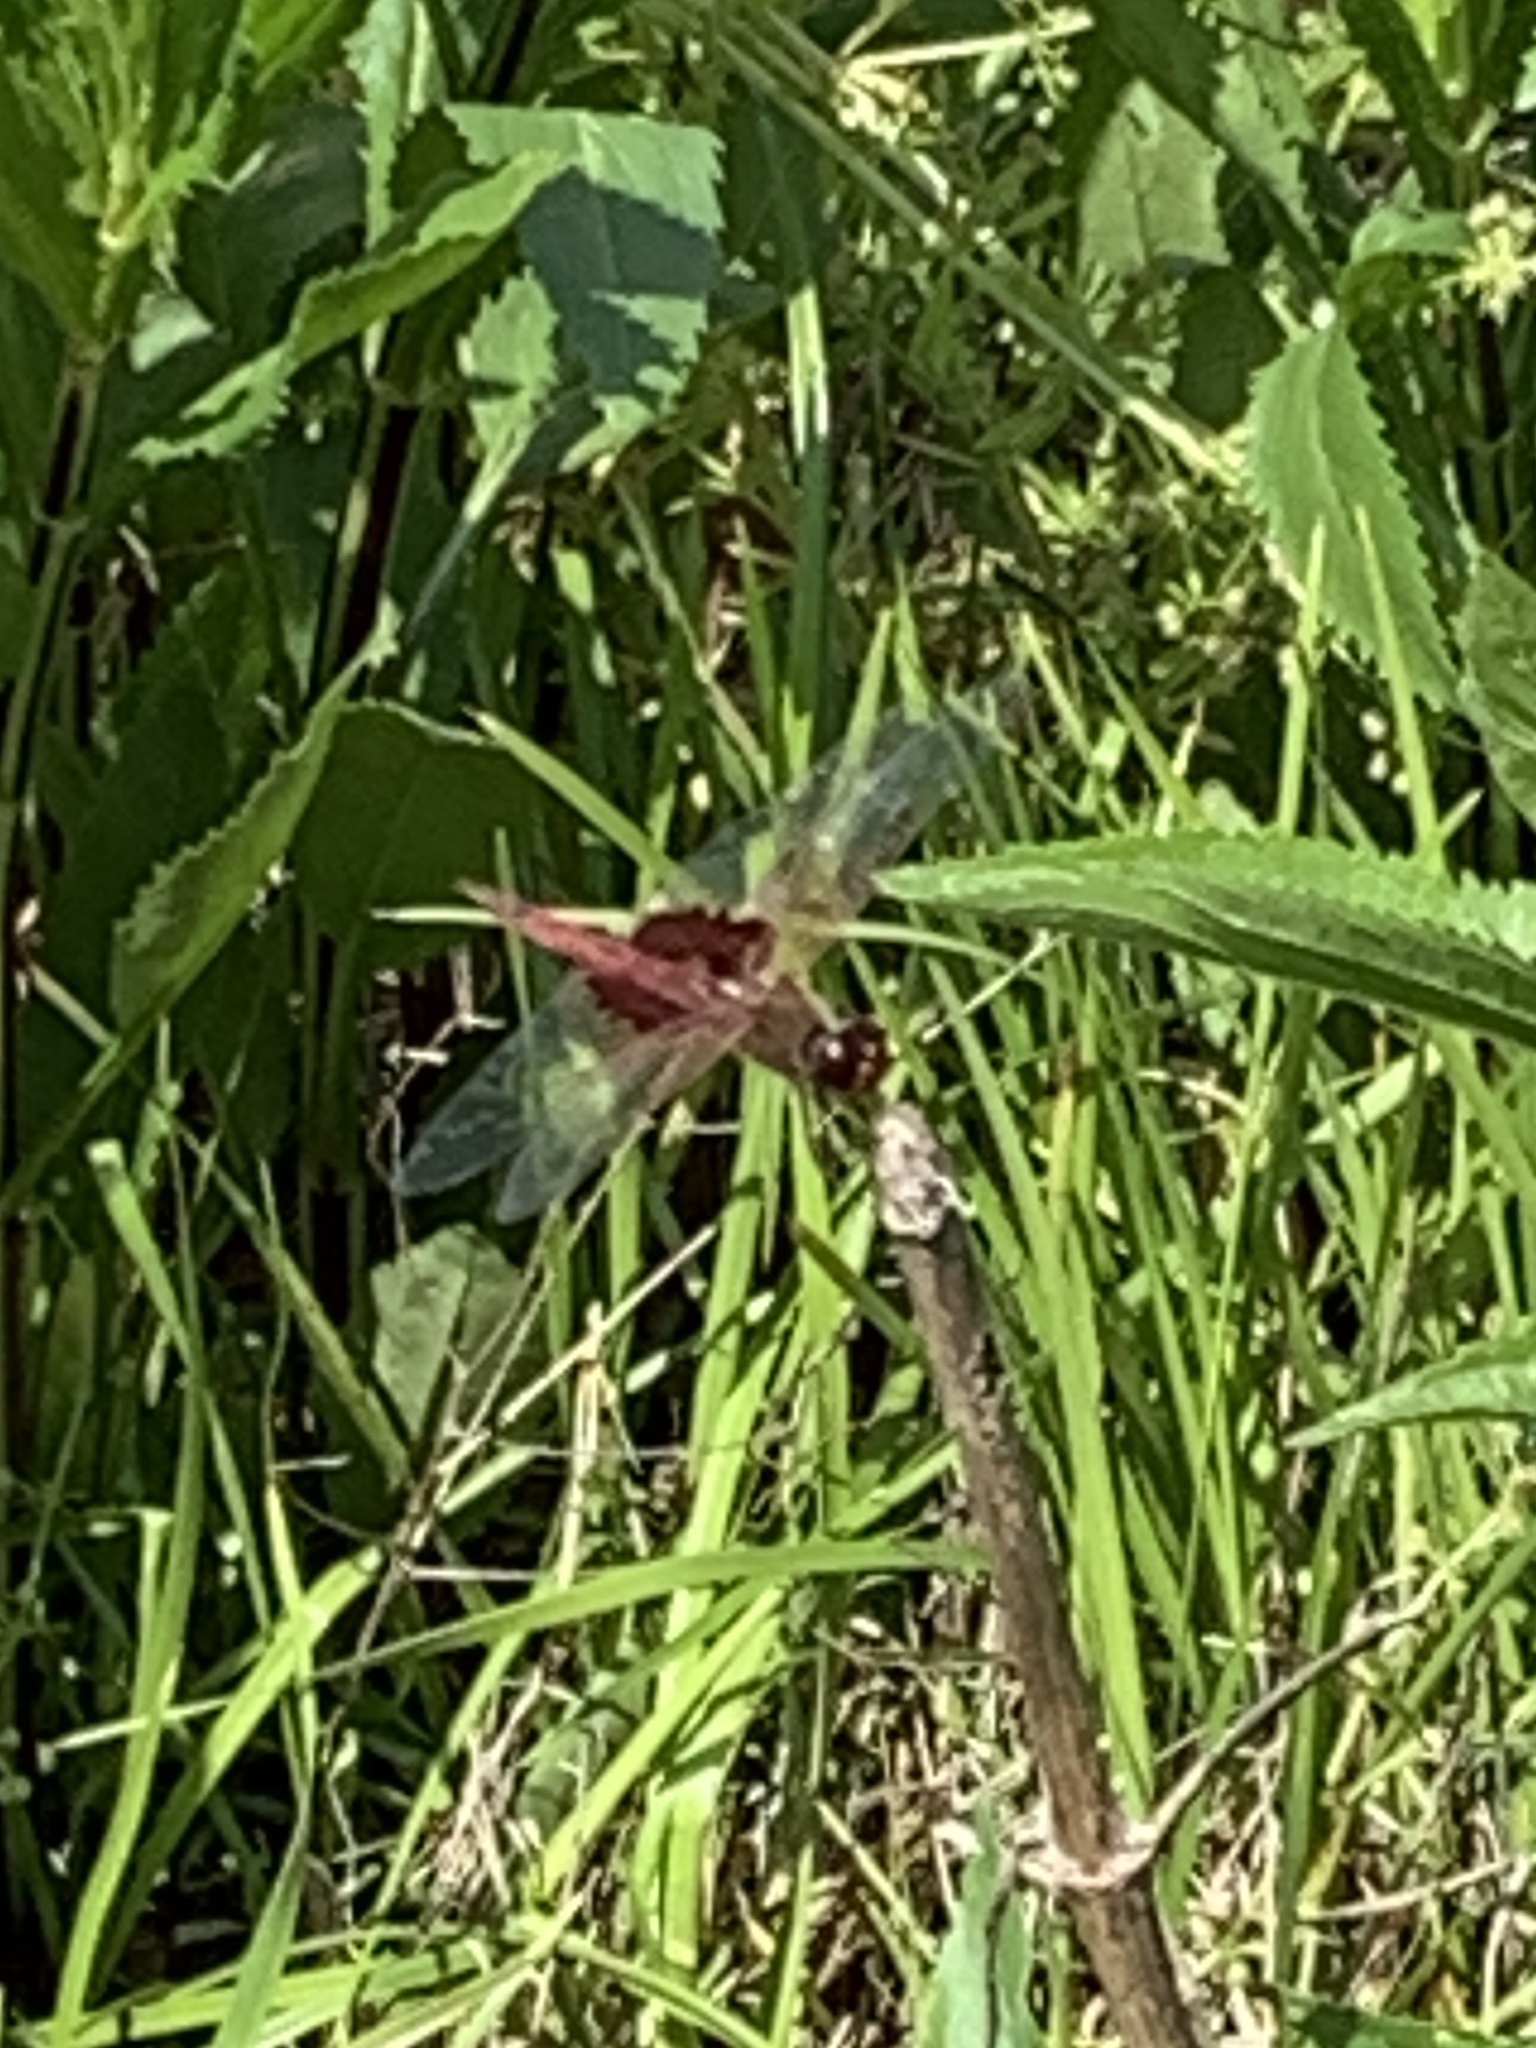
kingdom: Animalia
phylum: Arthropoda
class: Insecta
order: Odonata
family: Libellulidae
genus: Tramea
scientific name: Tramea onusta
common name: Red saddlebags
